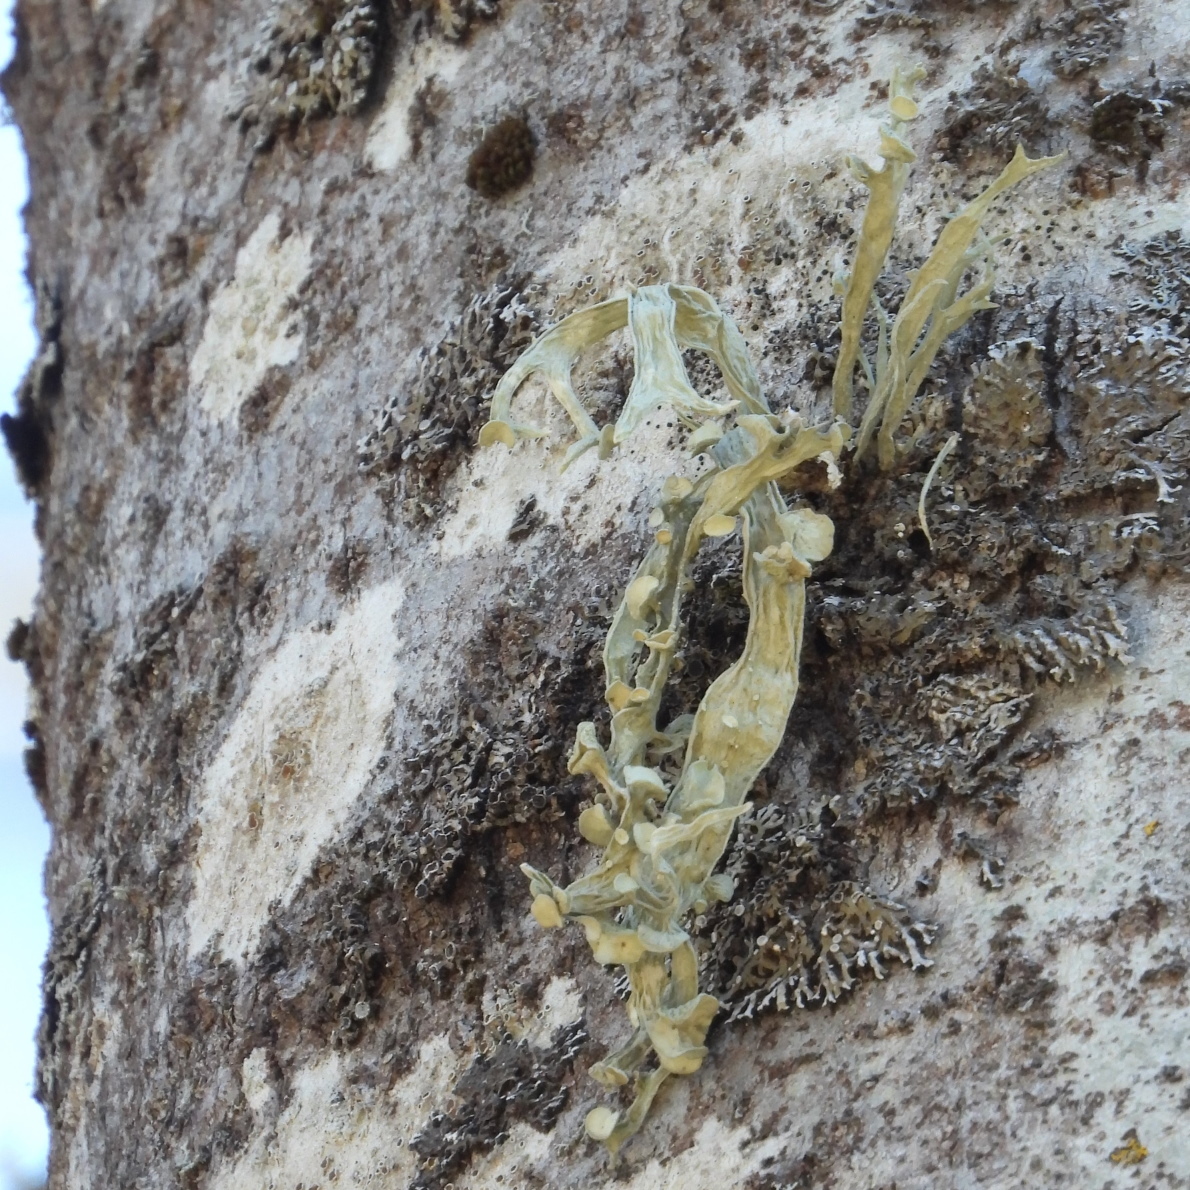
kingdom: Fungi
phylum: Ascomycota
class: Lecanoromycetes
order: Lecanorales
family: Ramalinaceae
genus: Ramalina
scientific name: Ramalina fraxinea
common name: Cartilage lichen
